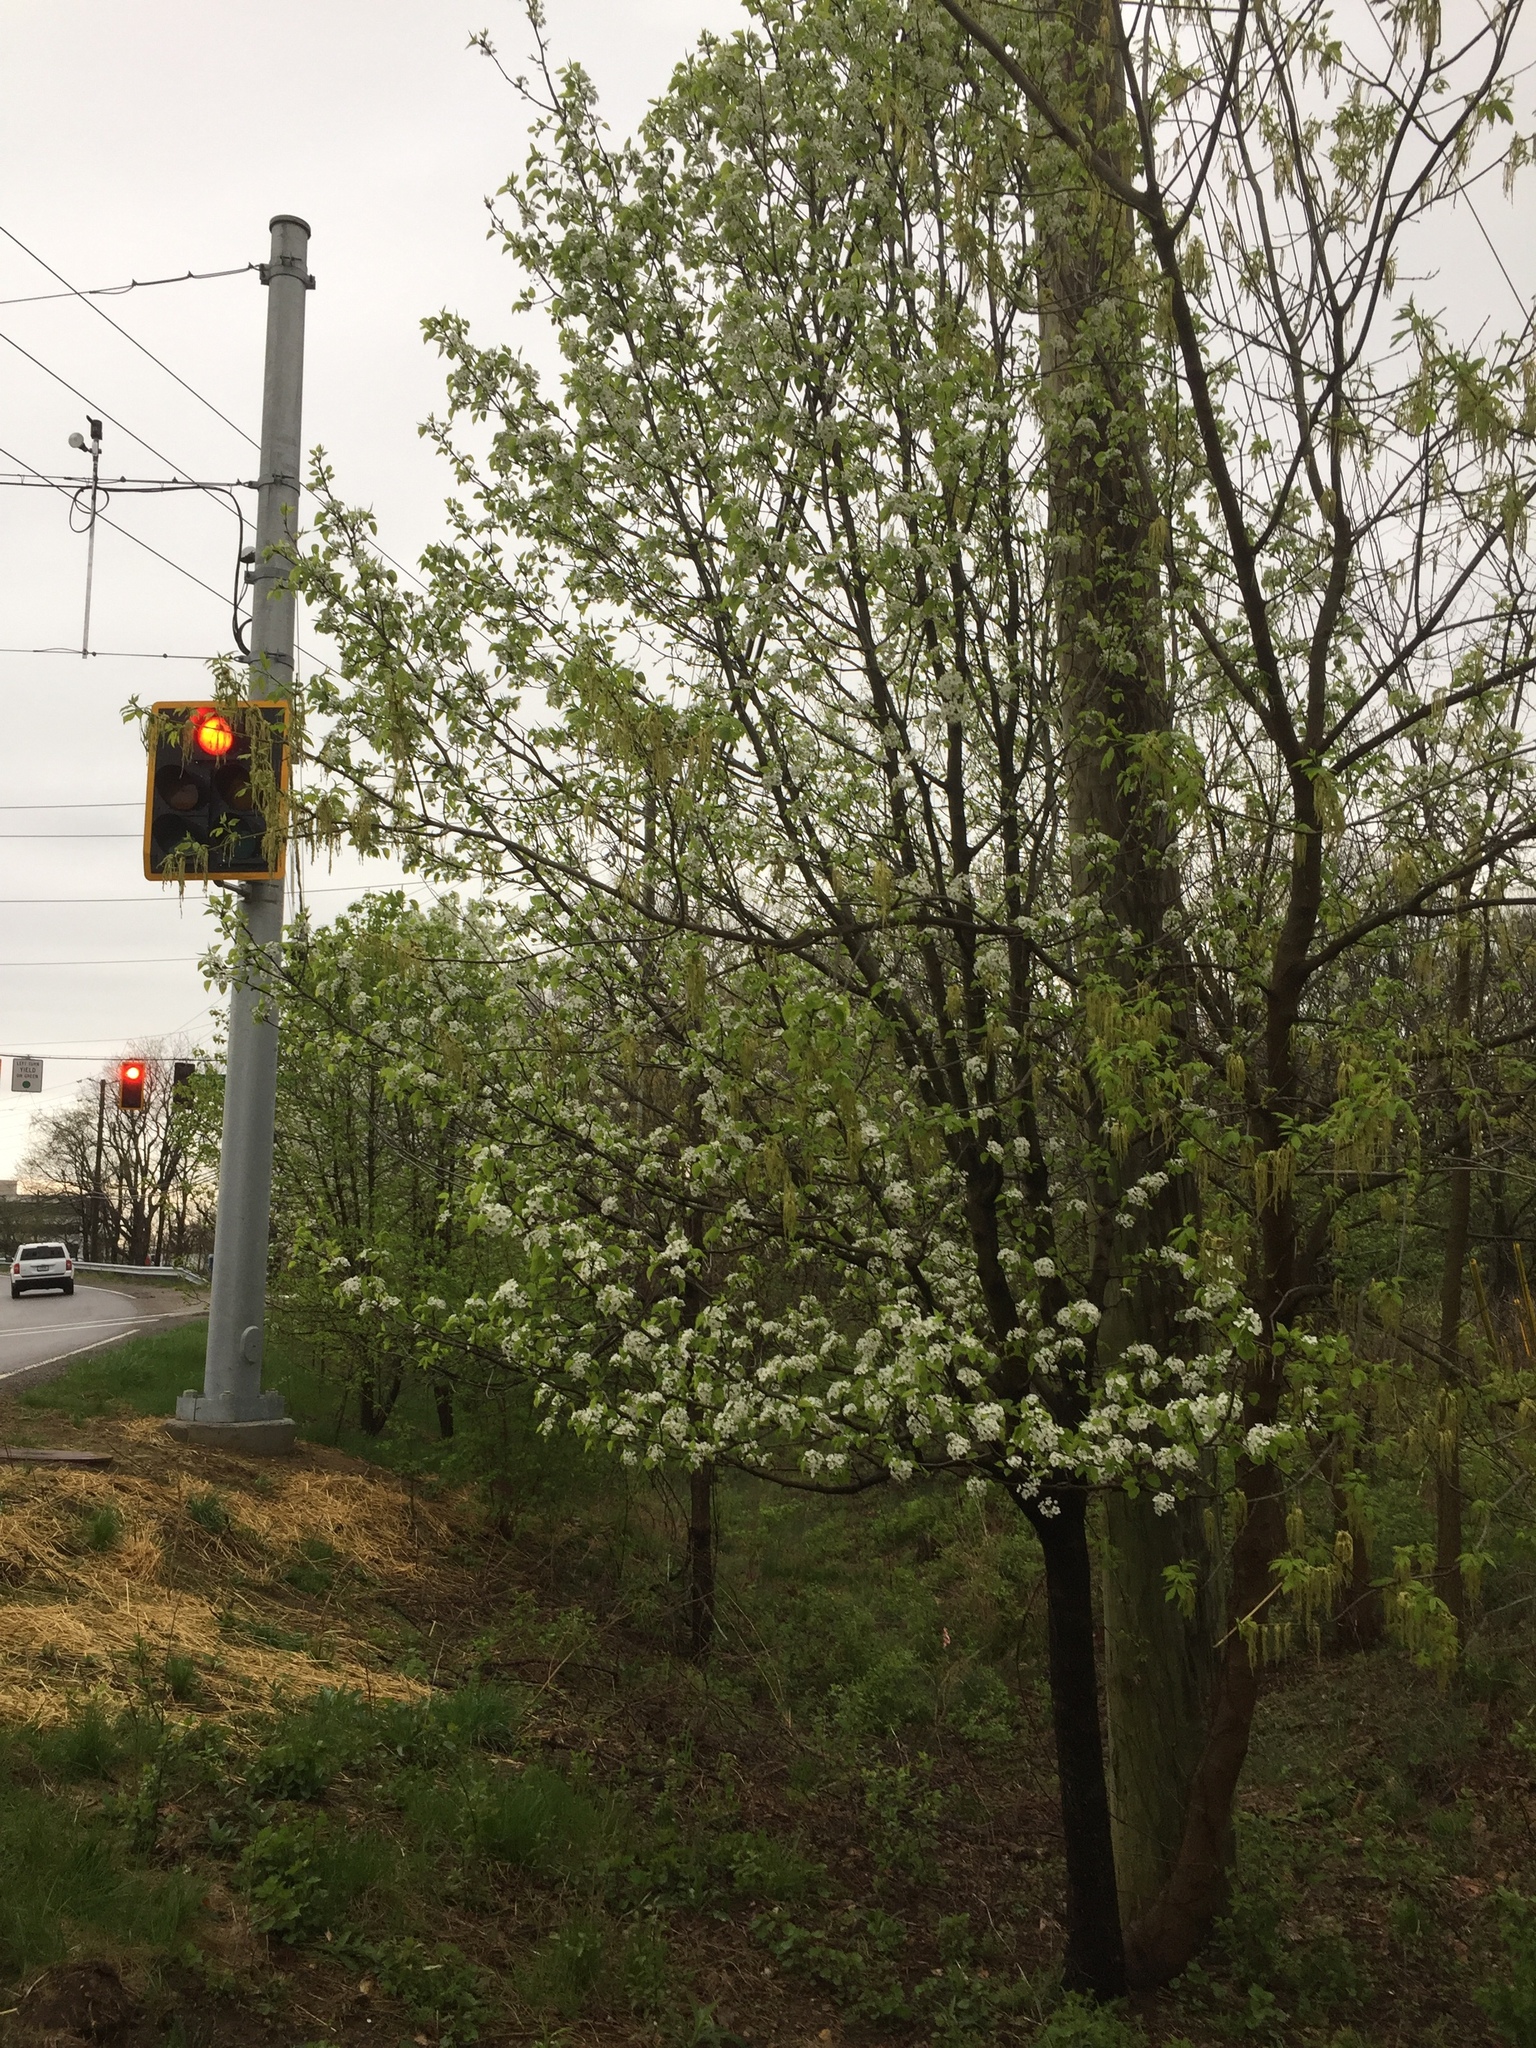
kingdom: Plantae
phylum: Tracheophyta
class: Magnoliopsida
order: Rosales
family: Rosaceae
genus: Pyrus
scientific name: Pyrus calleryana
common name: Callery pear
